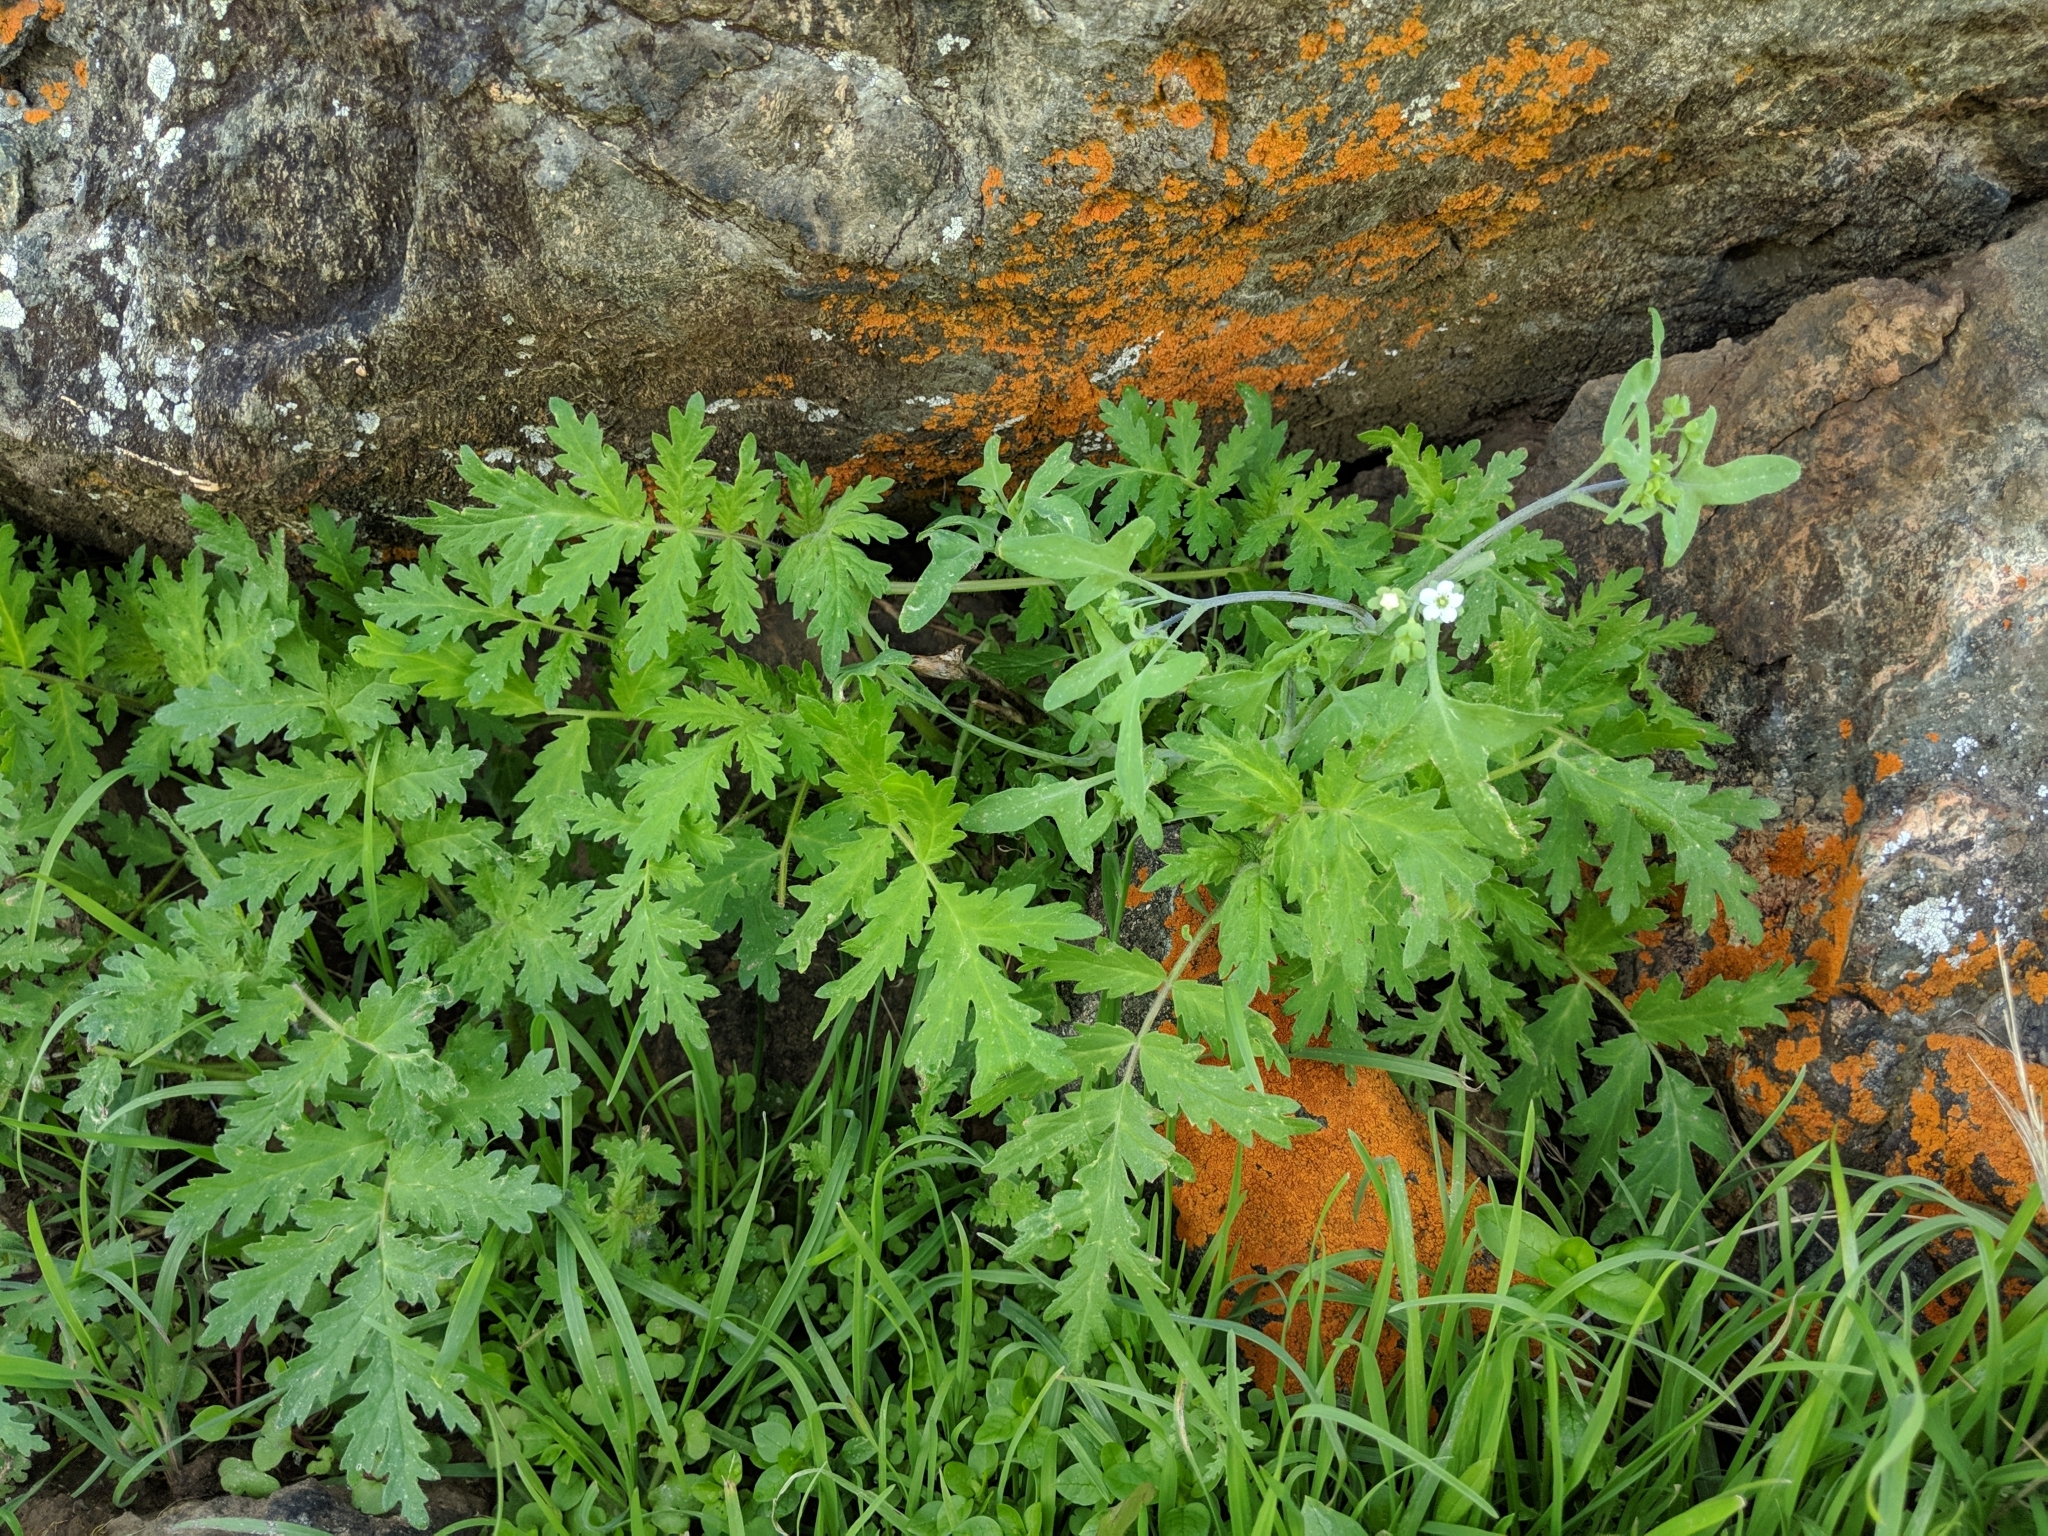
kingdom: Plantae
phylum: Tracheophyta
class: Magnoliopsida
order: Boraginales
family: Hydrophyllaceae
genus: Pholistoma
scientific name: Pholistoma membranaceum
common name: White fiesta-flower
